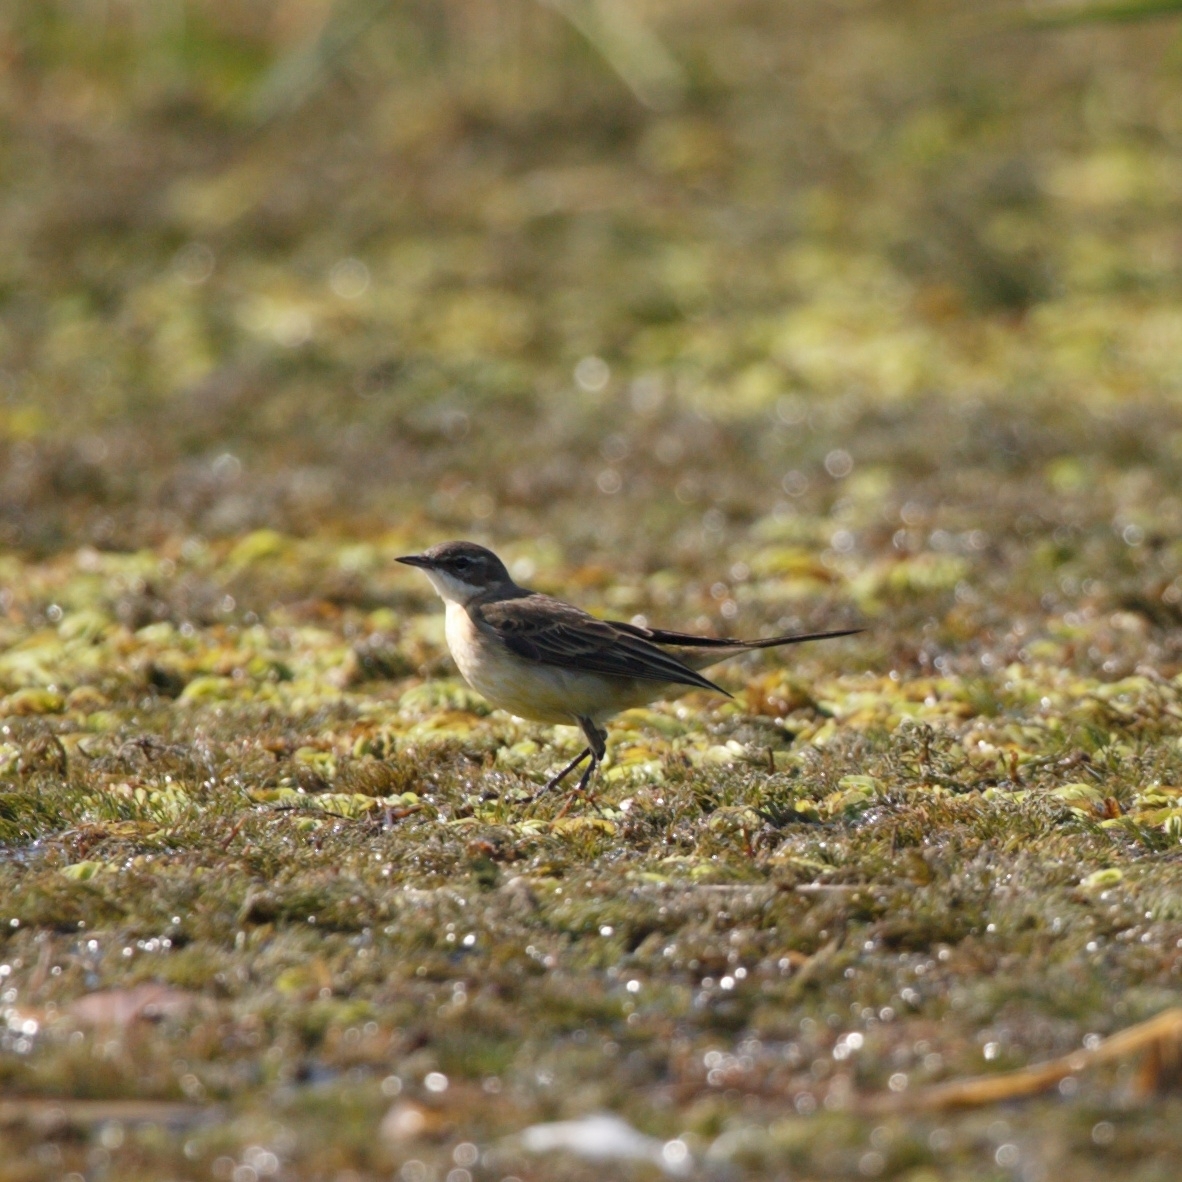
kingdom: Animalia
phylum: Chordata
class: Aves
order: Passeriformes
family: Motacillidae
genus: Motacilla
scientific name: Motacilla flava
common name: Western yellow wagtail
